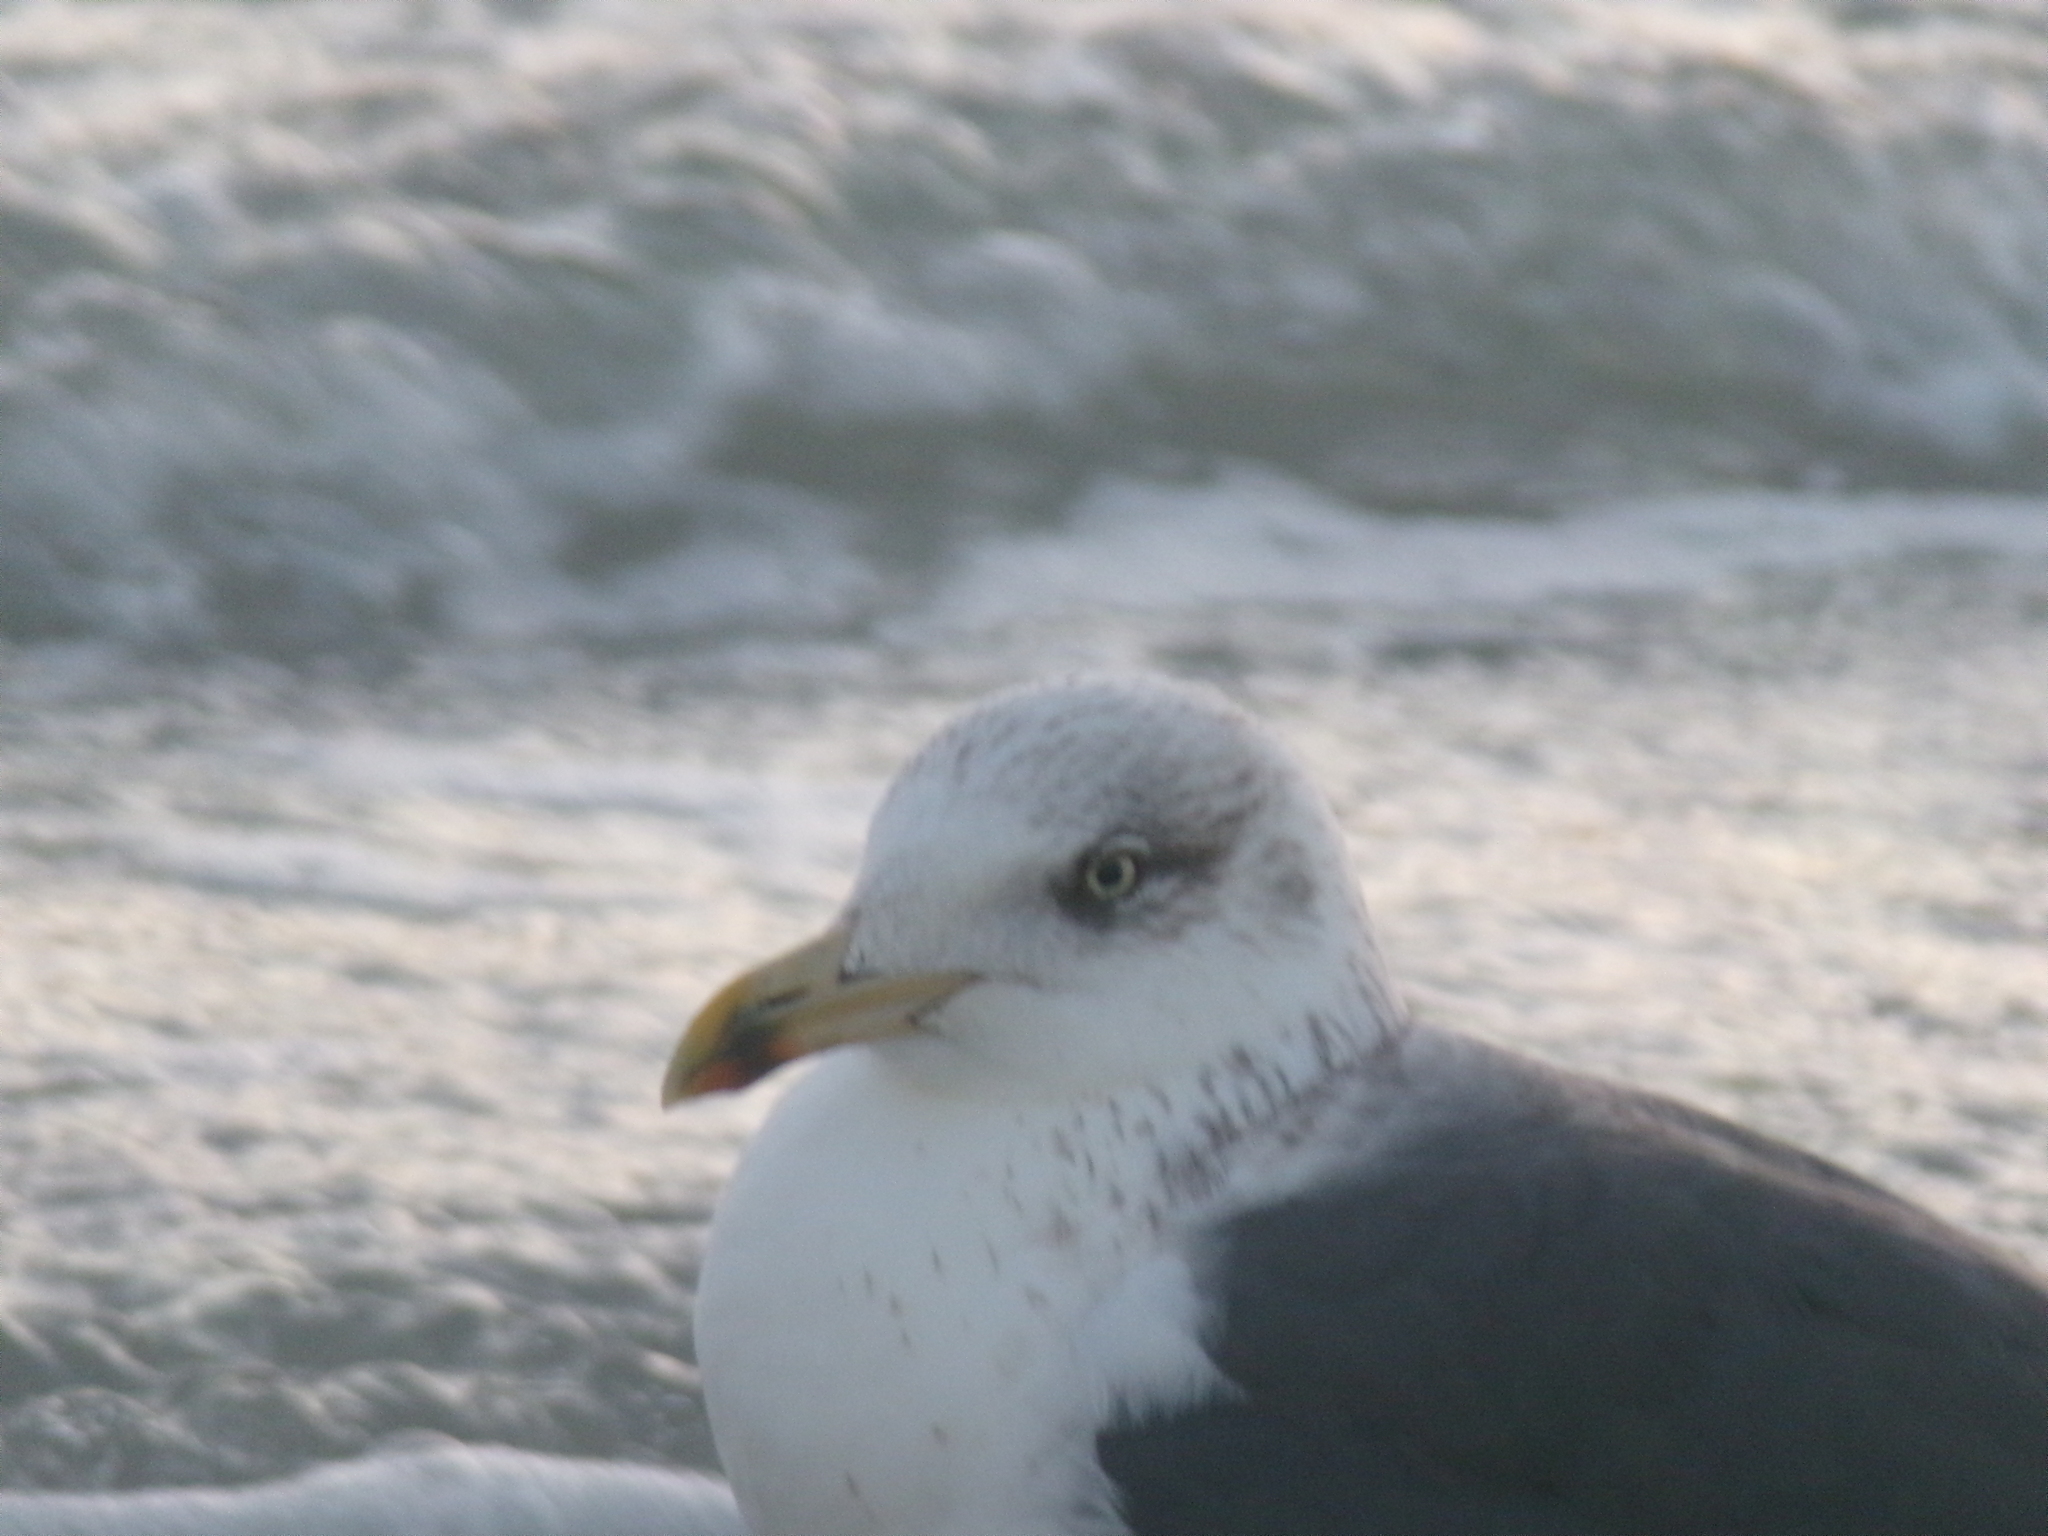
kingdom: Animalia
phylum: Chordata
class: Aves
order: Charadriiformes
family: Laridae
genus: Larus
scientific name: Larus fuscus
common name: Lesser black-backed gull
